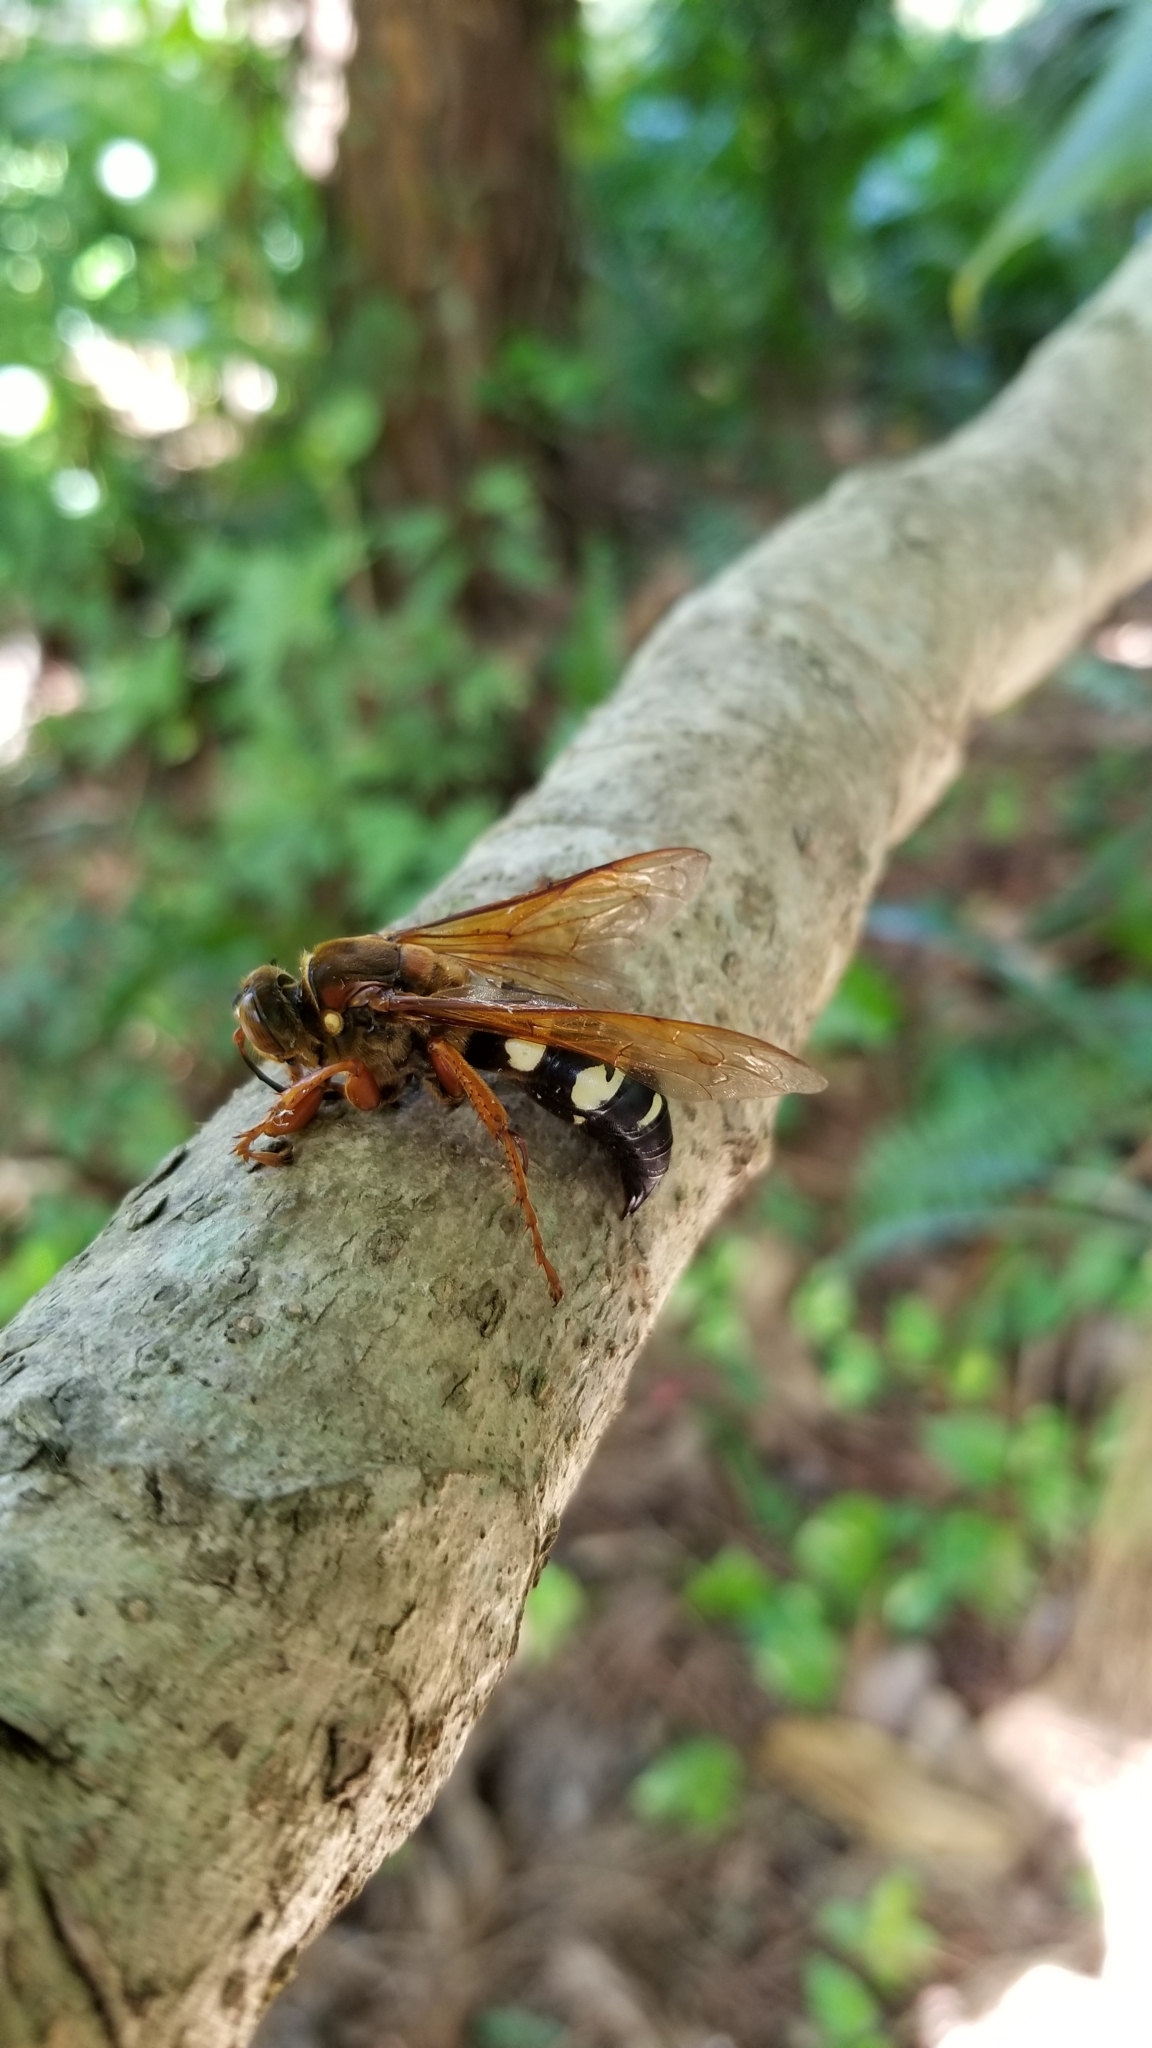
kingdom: Animalia
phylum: Arthropoda
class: Insecta
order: Hymenoptera
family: Crabronidae
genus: Sphecius
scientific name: Sphecius speciosus
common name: Cicada killer
